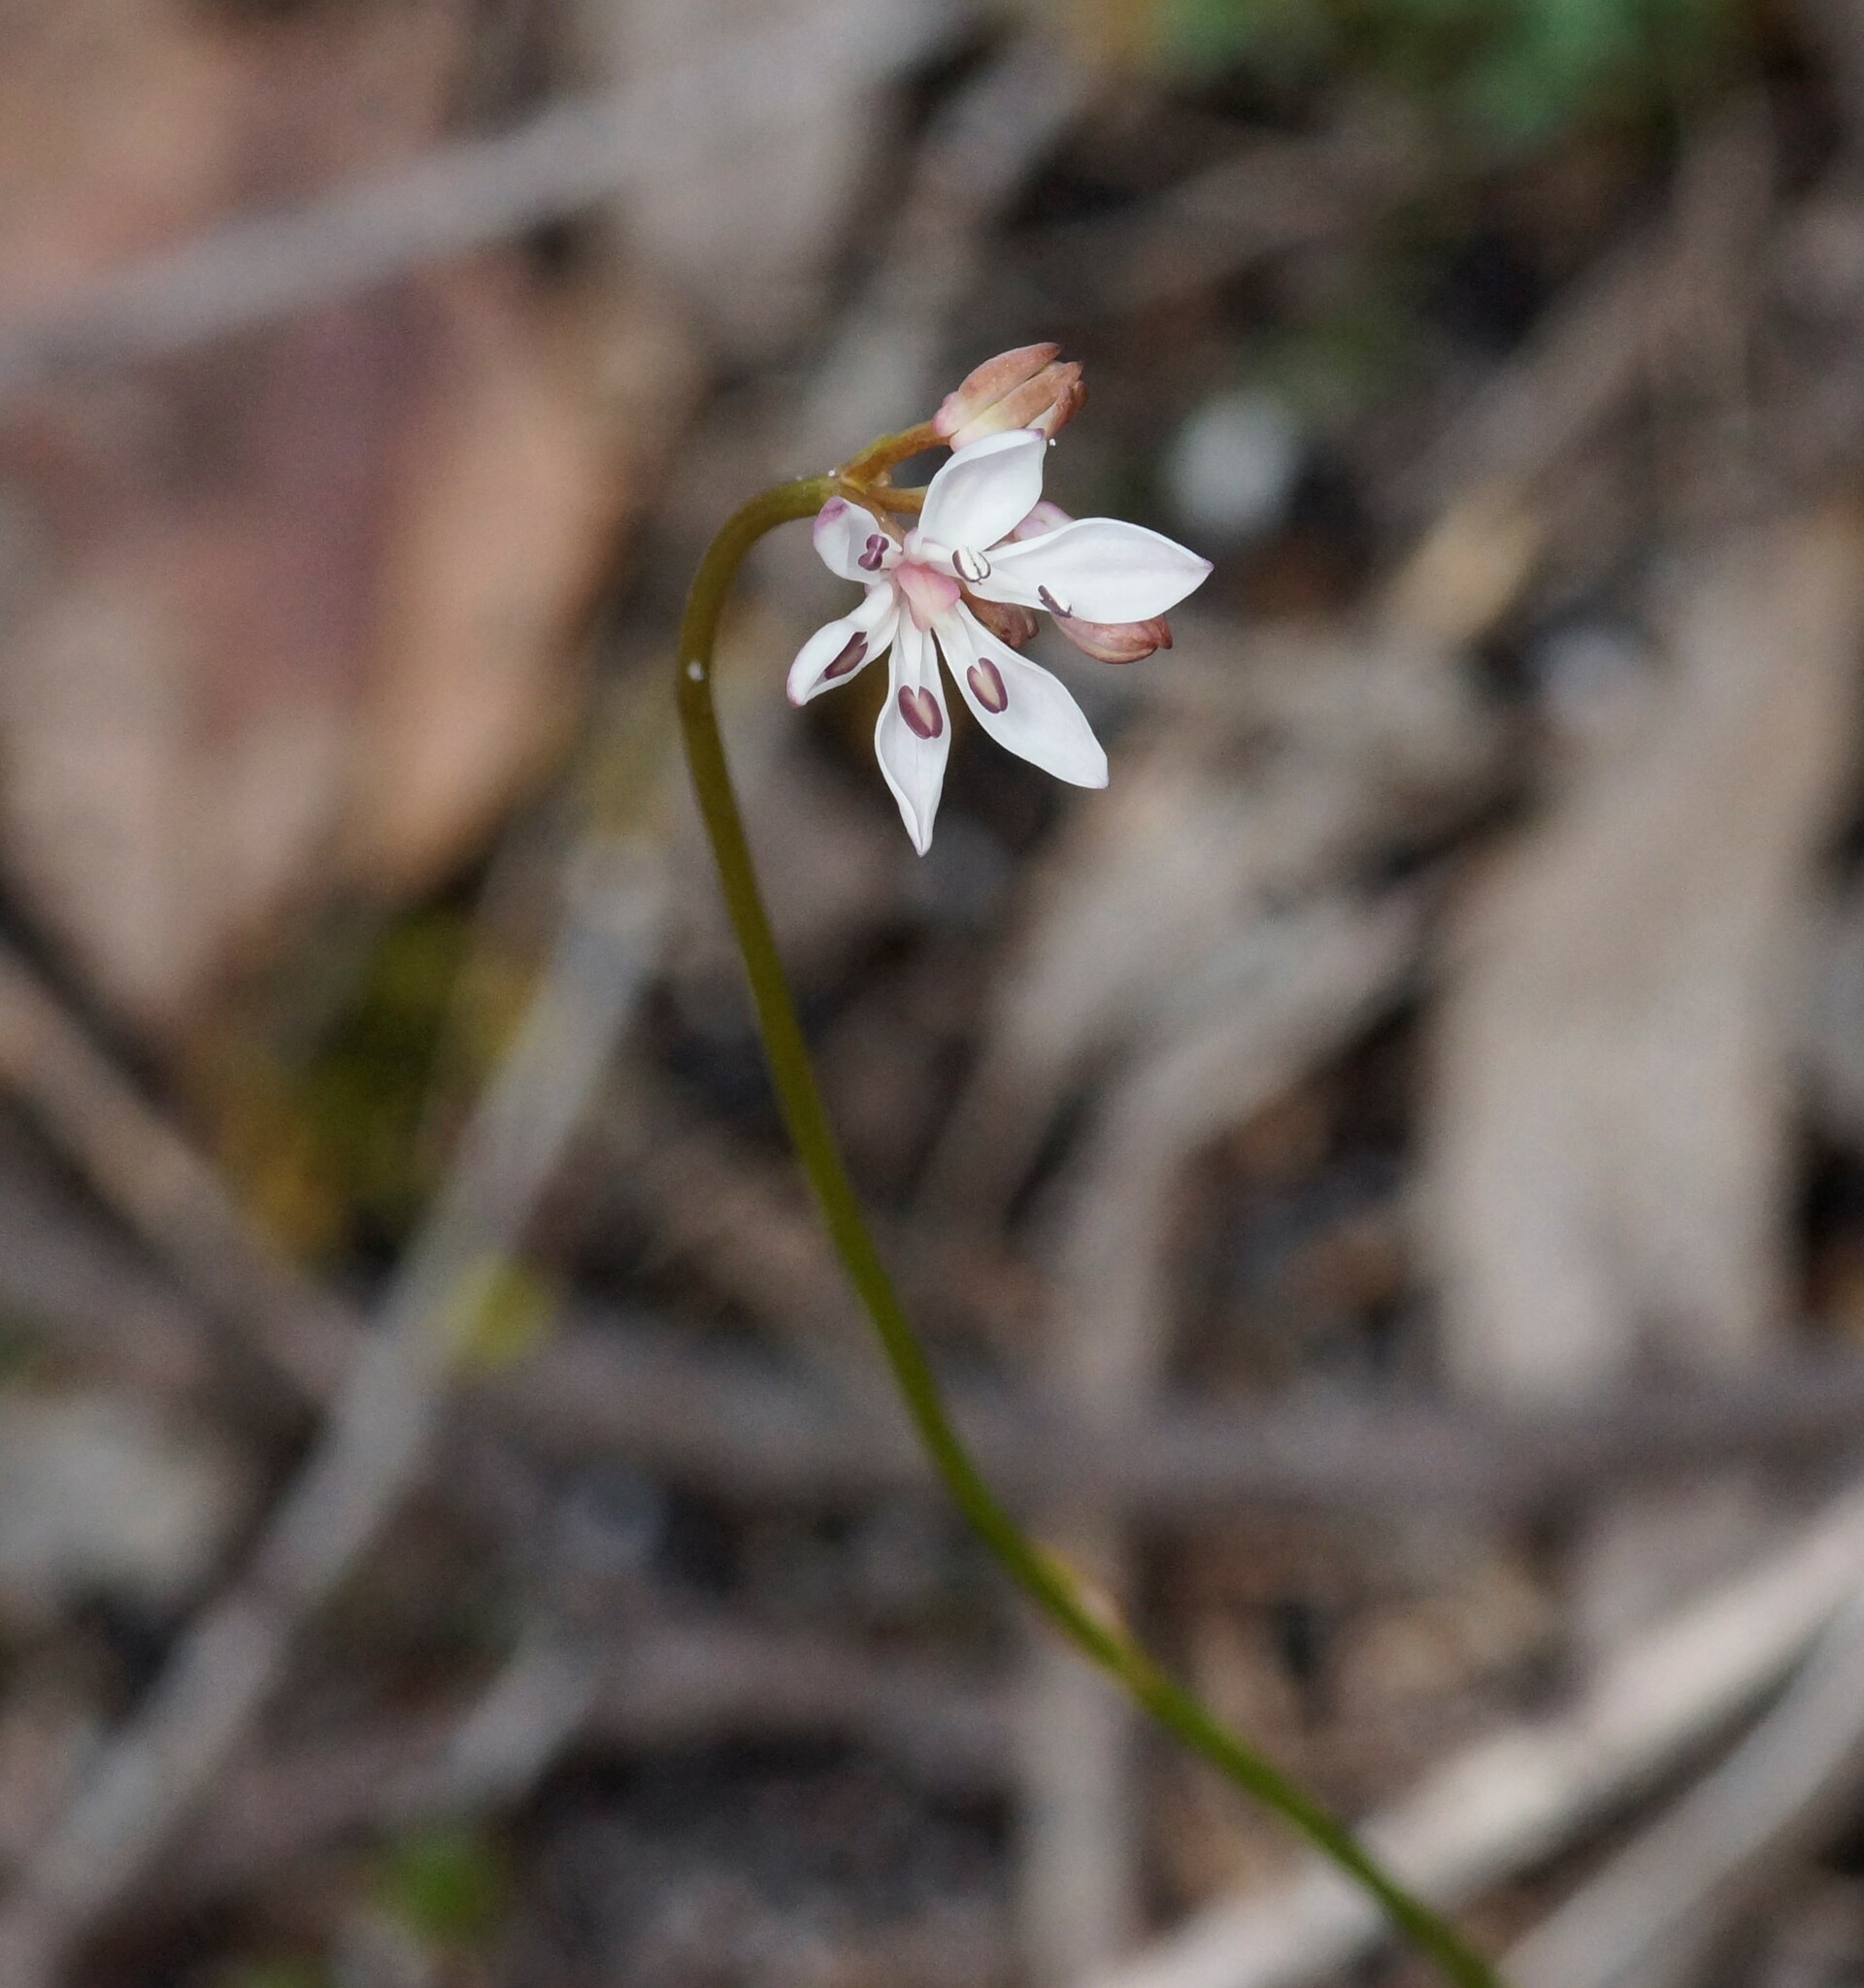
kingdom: Plantae
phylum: Tracheophyta
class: Liliopsida
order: Liliales
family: Colchicaceae
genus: Burchardia
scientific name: Burchardia umbellata
